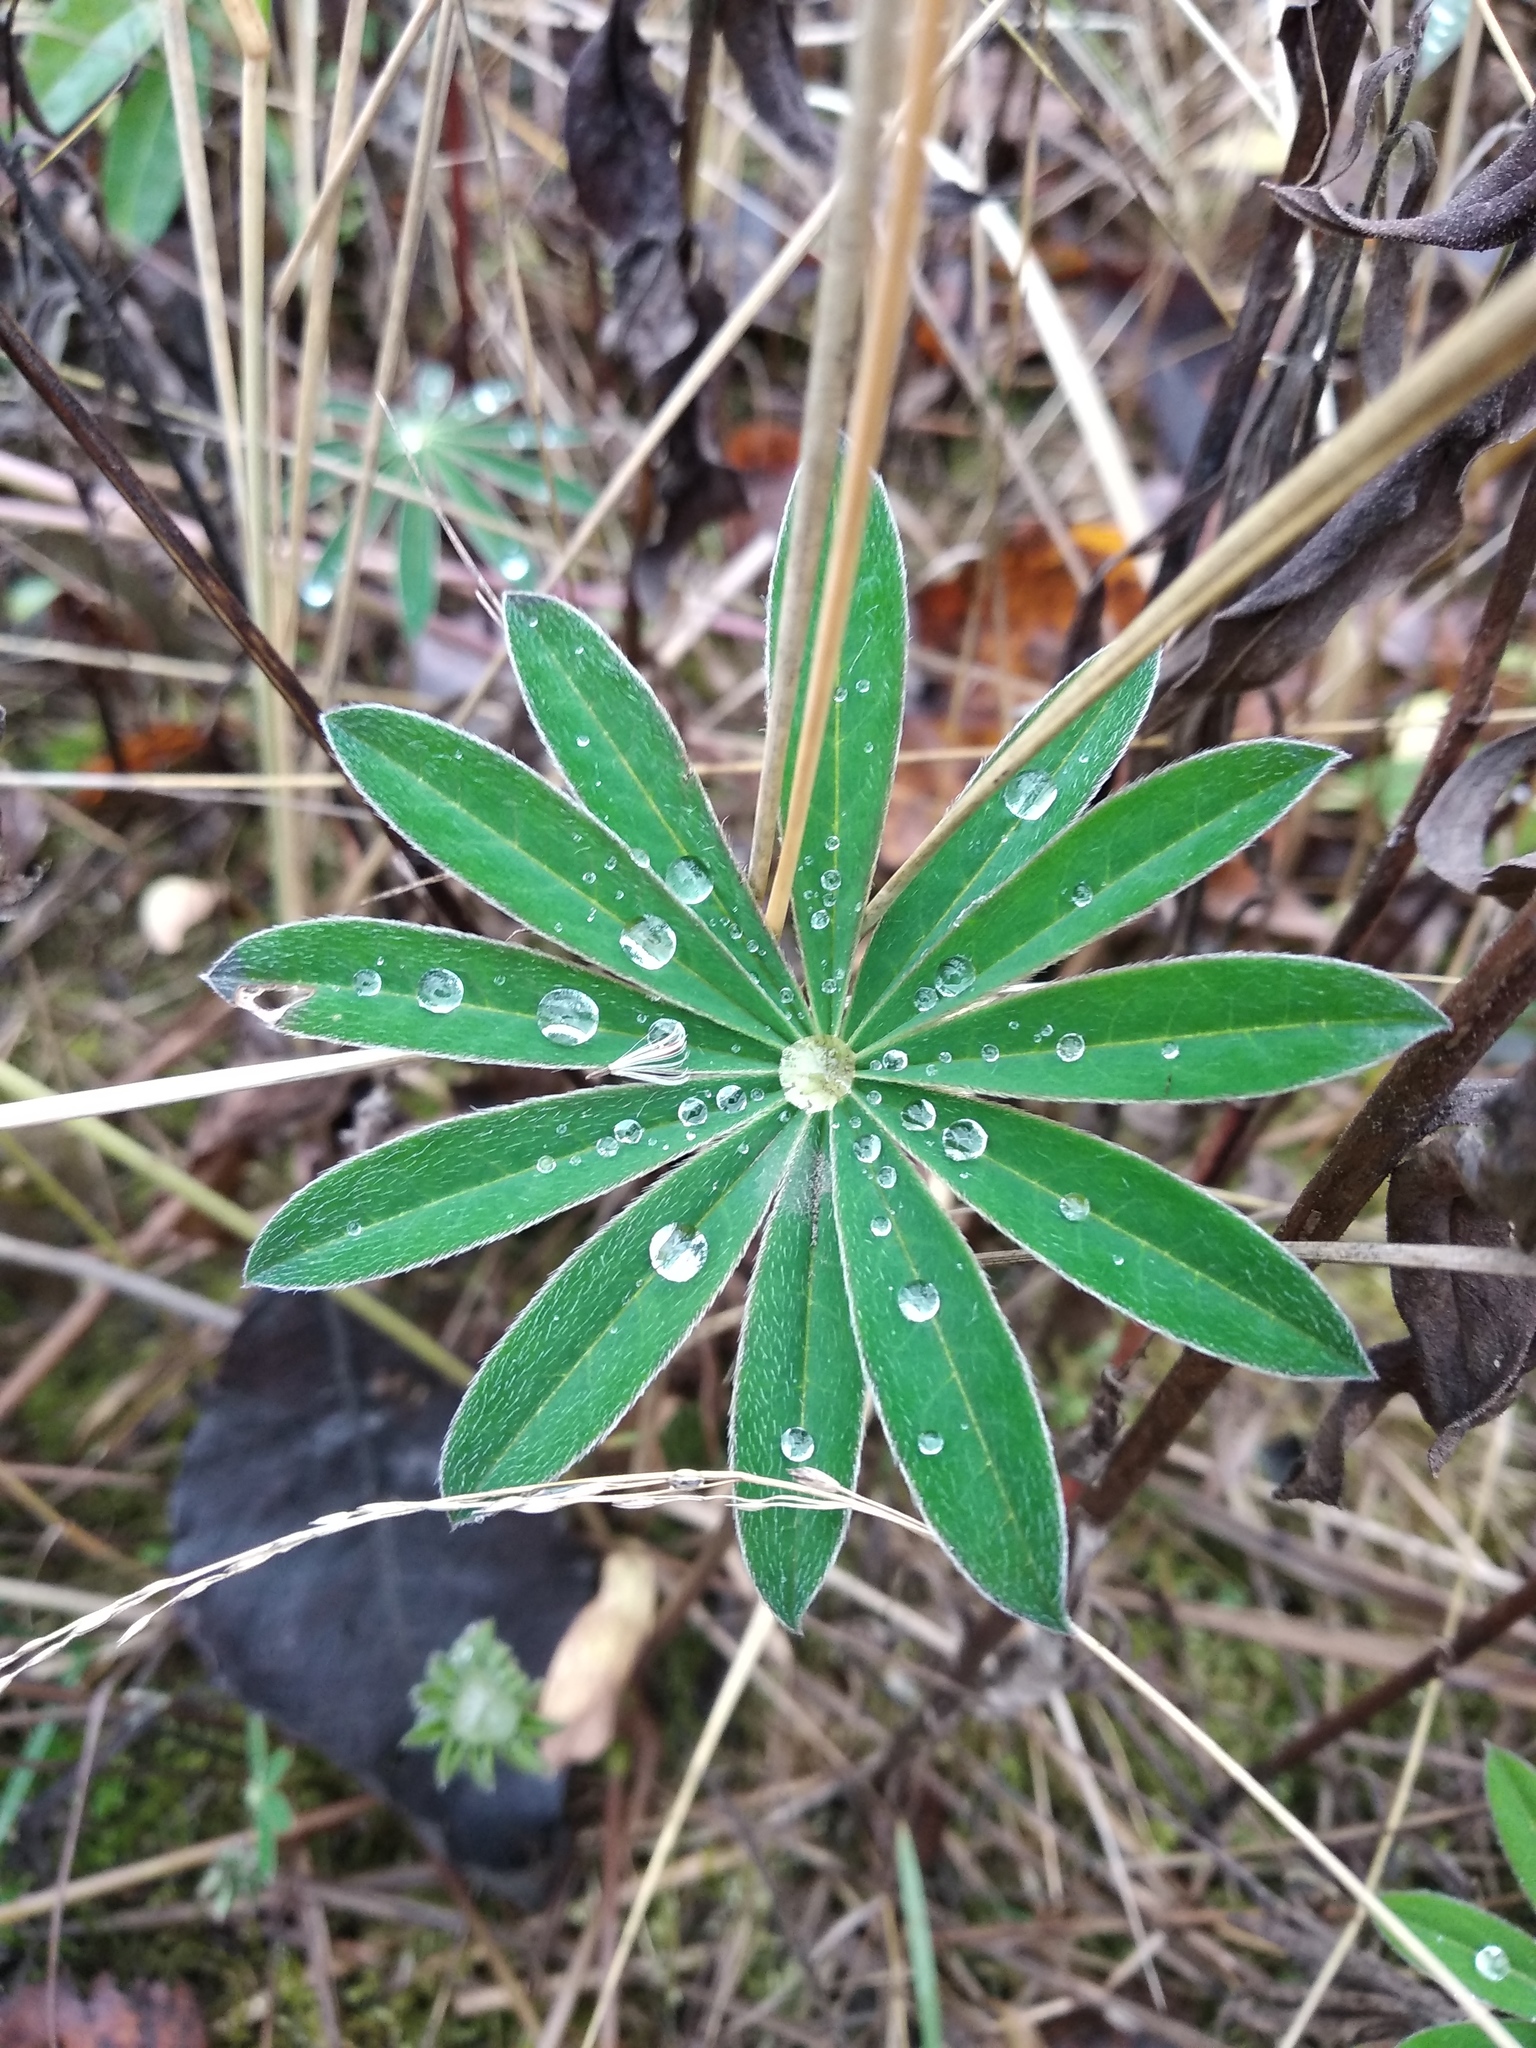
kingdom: Plantae
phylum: Tracheophyta
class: Magnoliopsida
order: Fabales
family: Fabaceae
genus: Lupinus
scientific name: Lupinus polyphyllus
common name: Garden lupin
